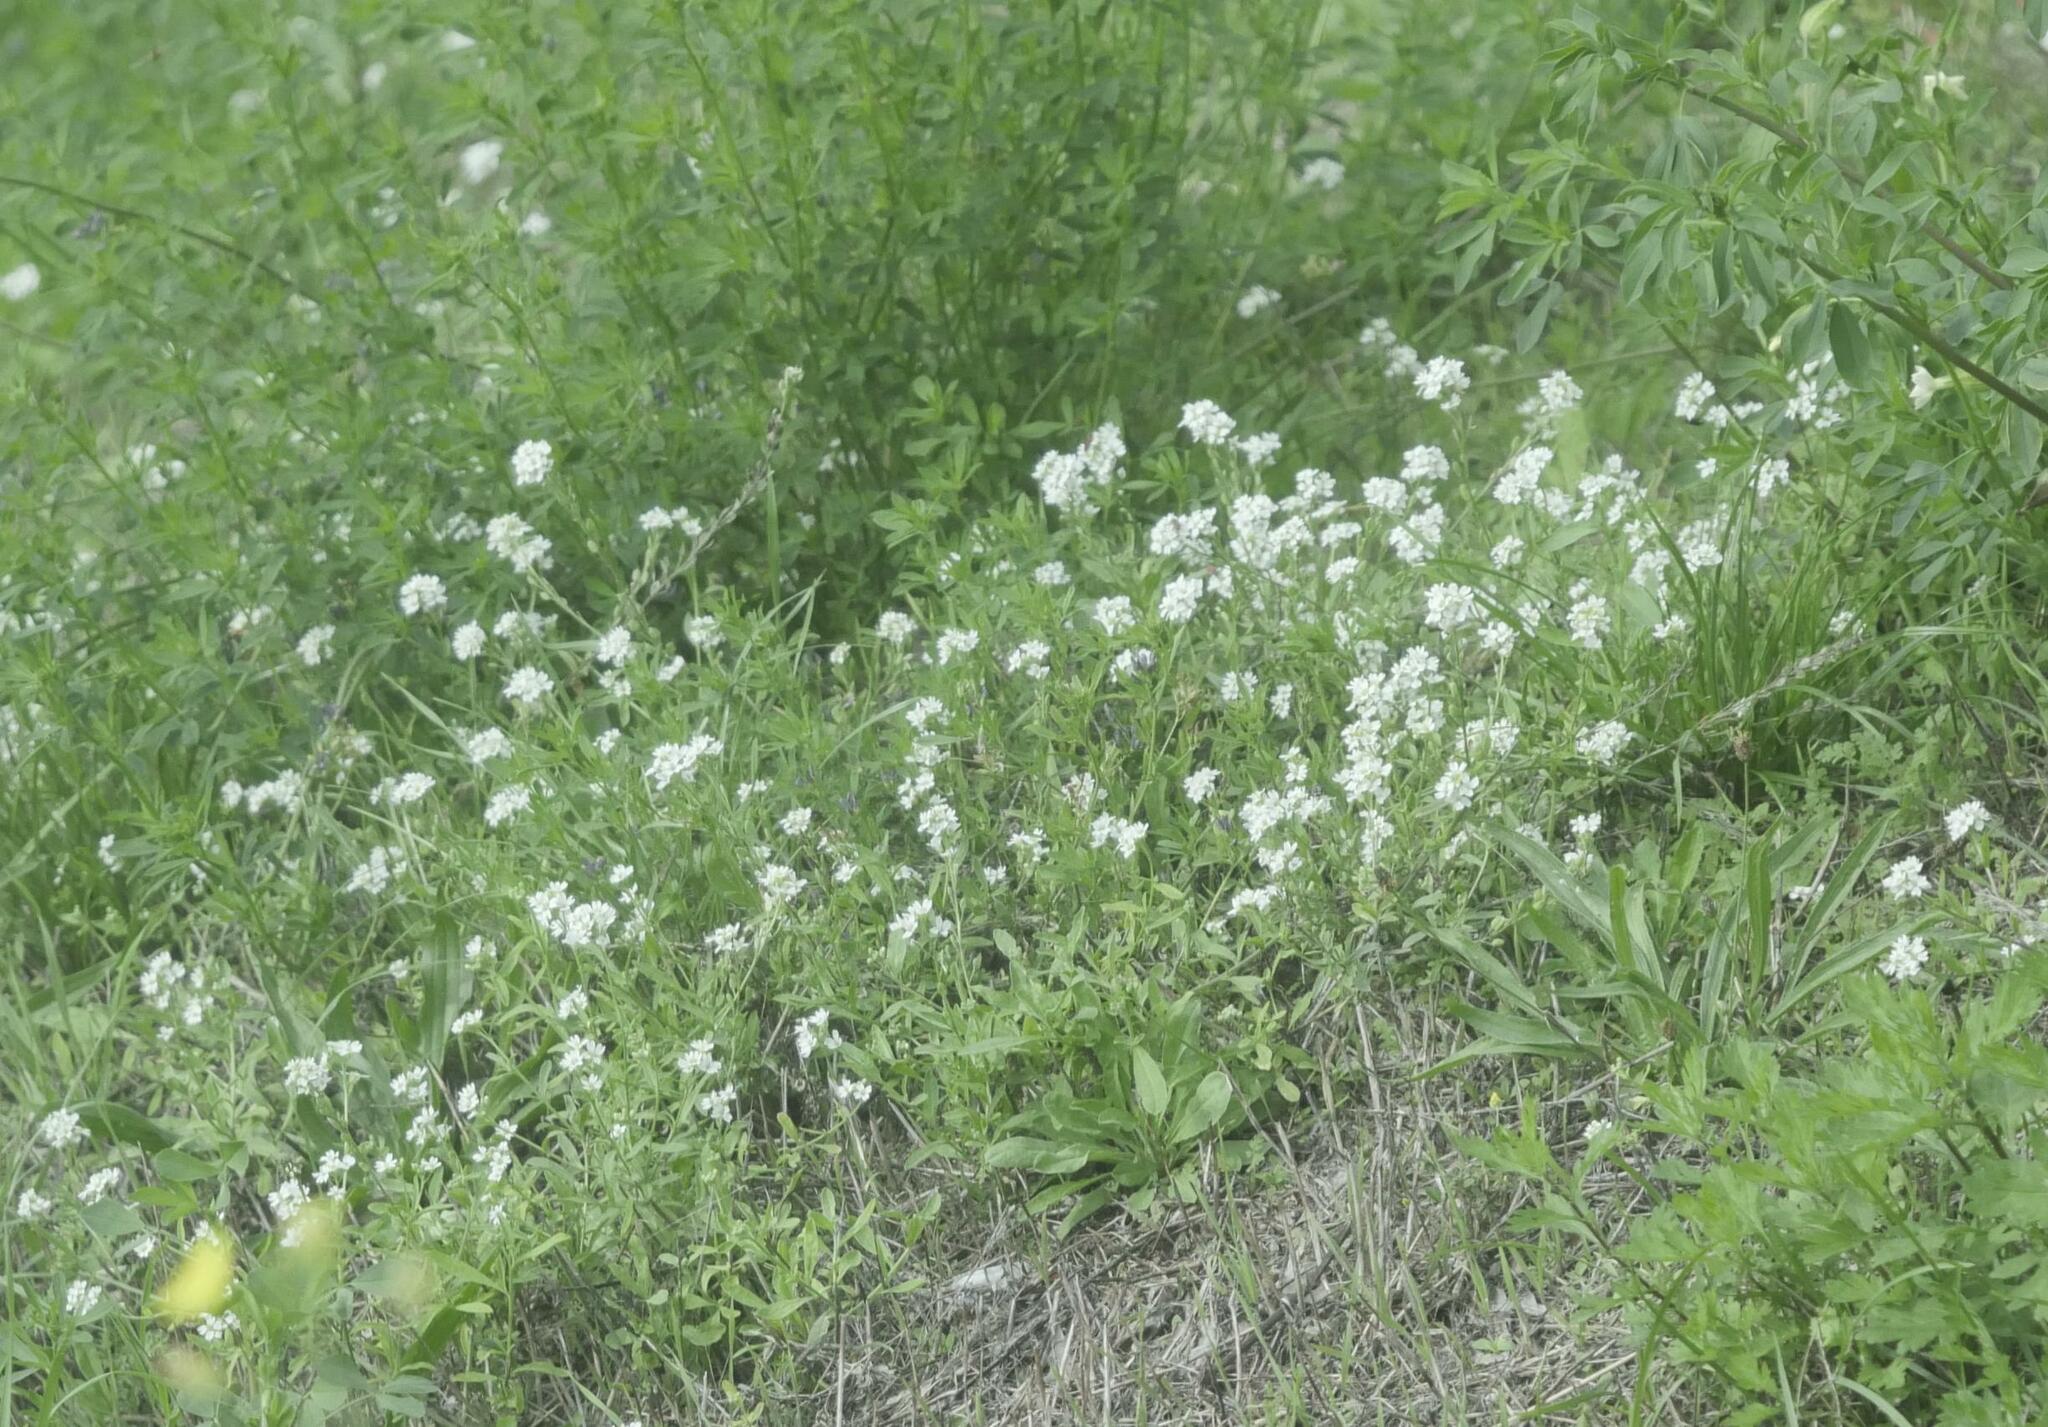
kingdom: Plantae
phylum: Tracheophyta
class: Magnoliopsida
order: Brassicales
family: Brassicaceae
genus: Berteroa
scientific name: Berteroa incana
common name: Hoary alison
